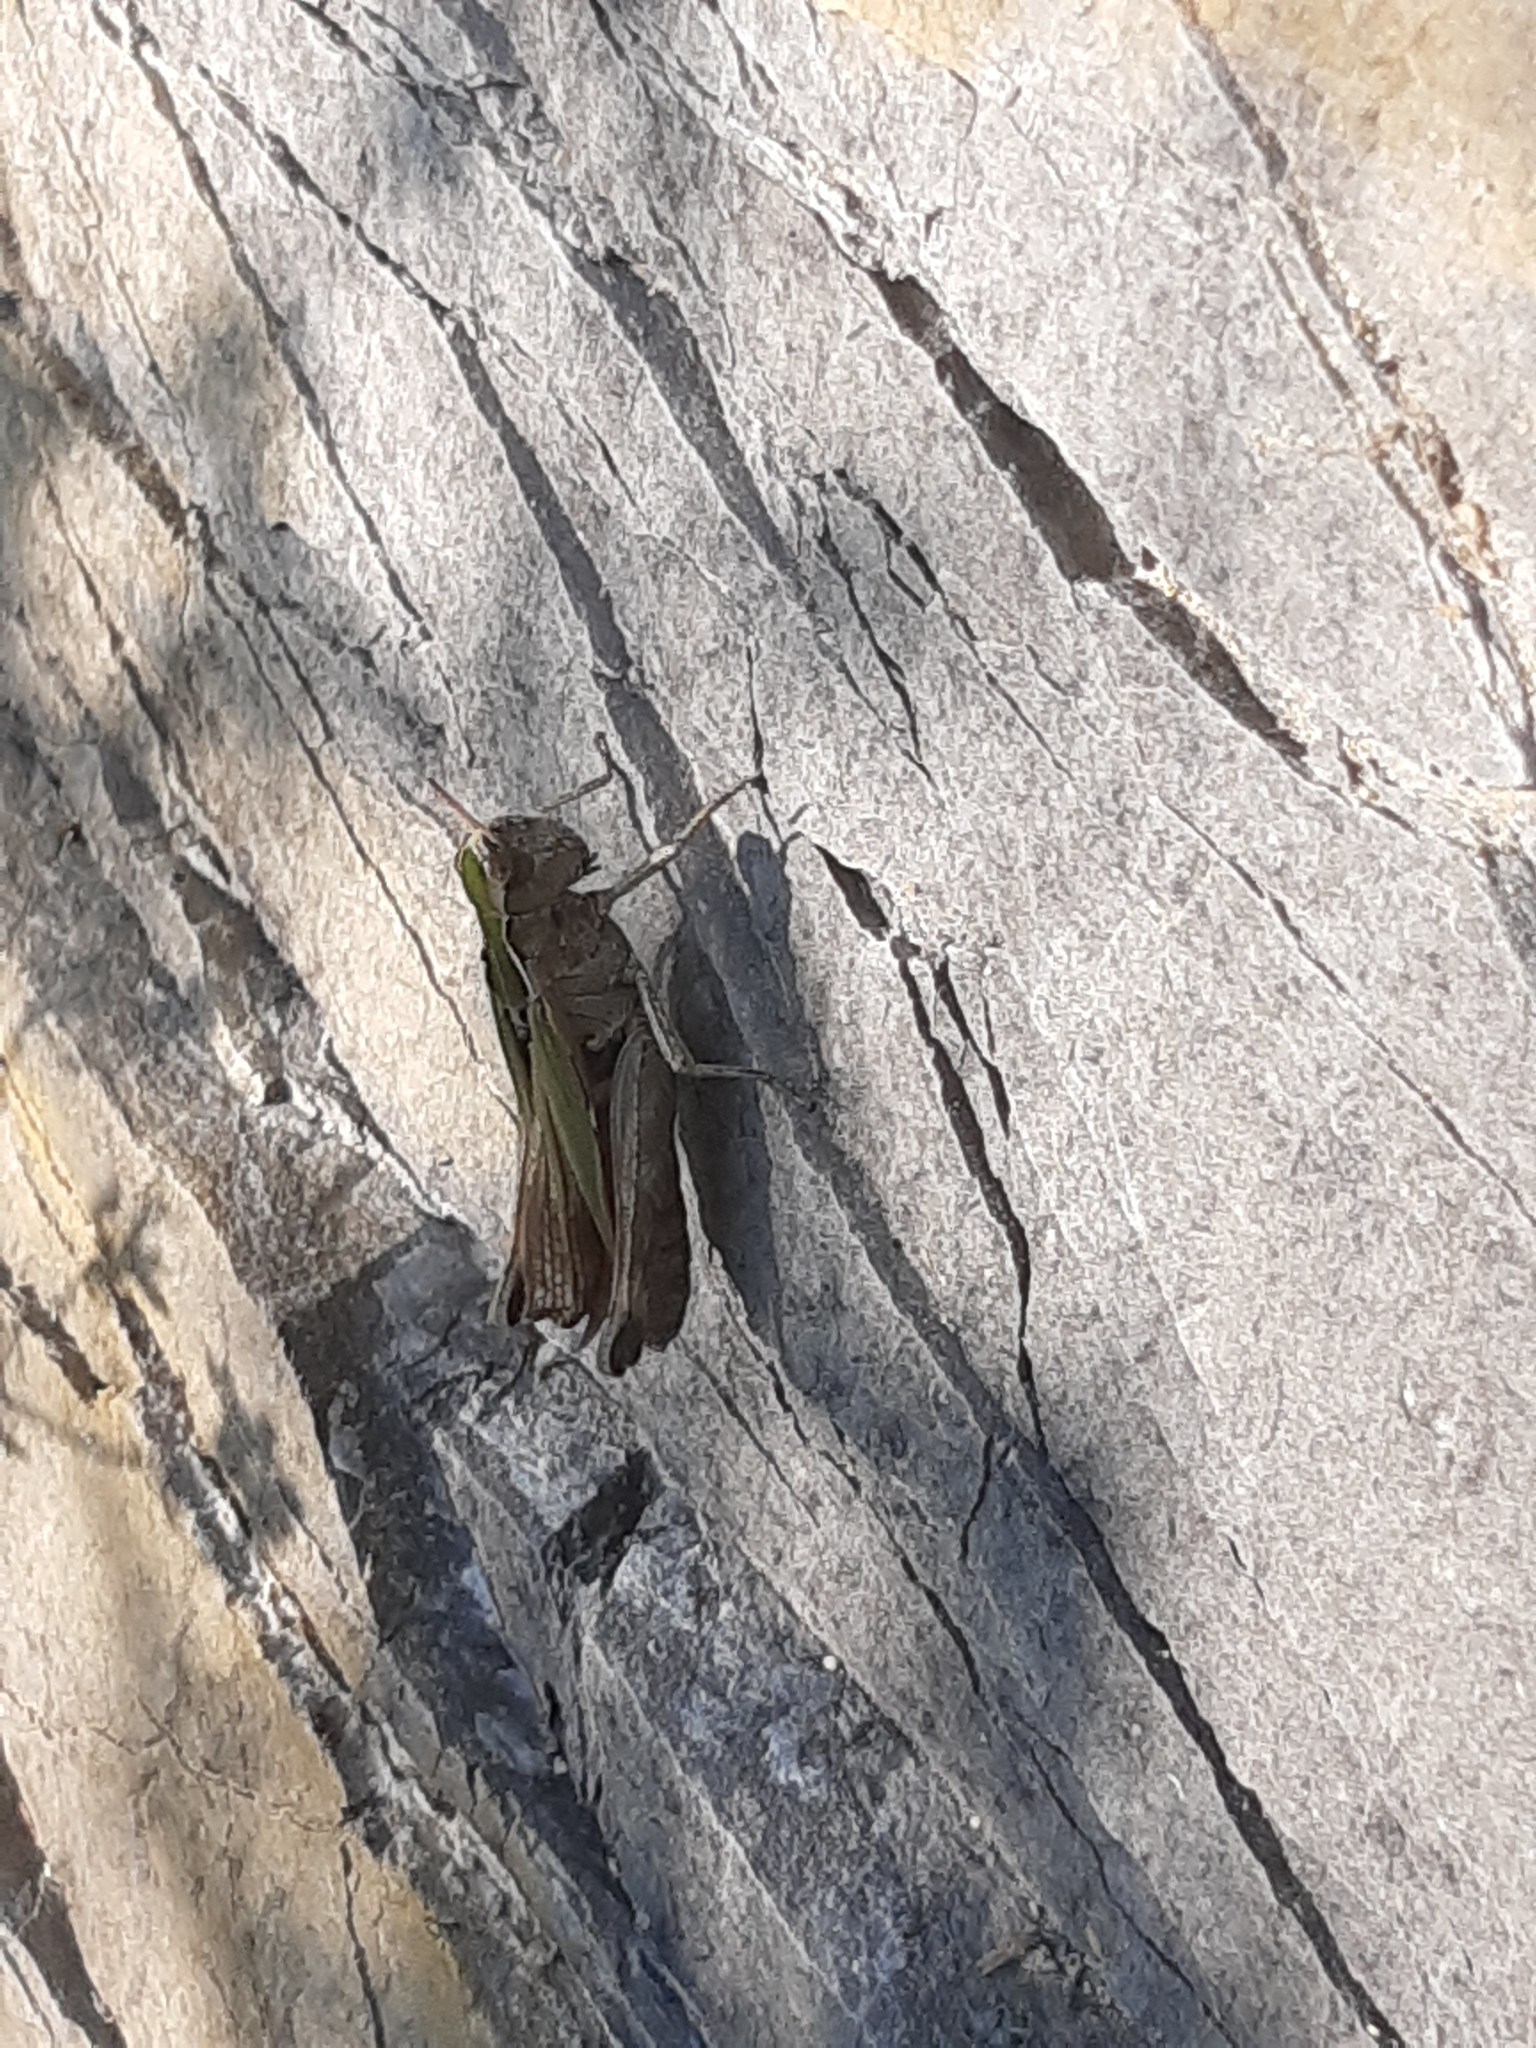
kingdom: Animalia
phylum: Arthropoda
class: Insecta
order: Orthoptera
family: Acrididae
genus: Omocestus
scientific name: Omocestus rufipes
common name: Woodland grasshopper
